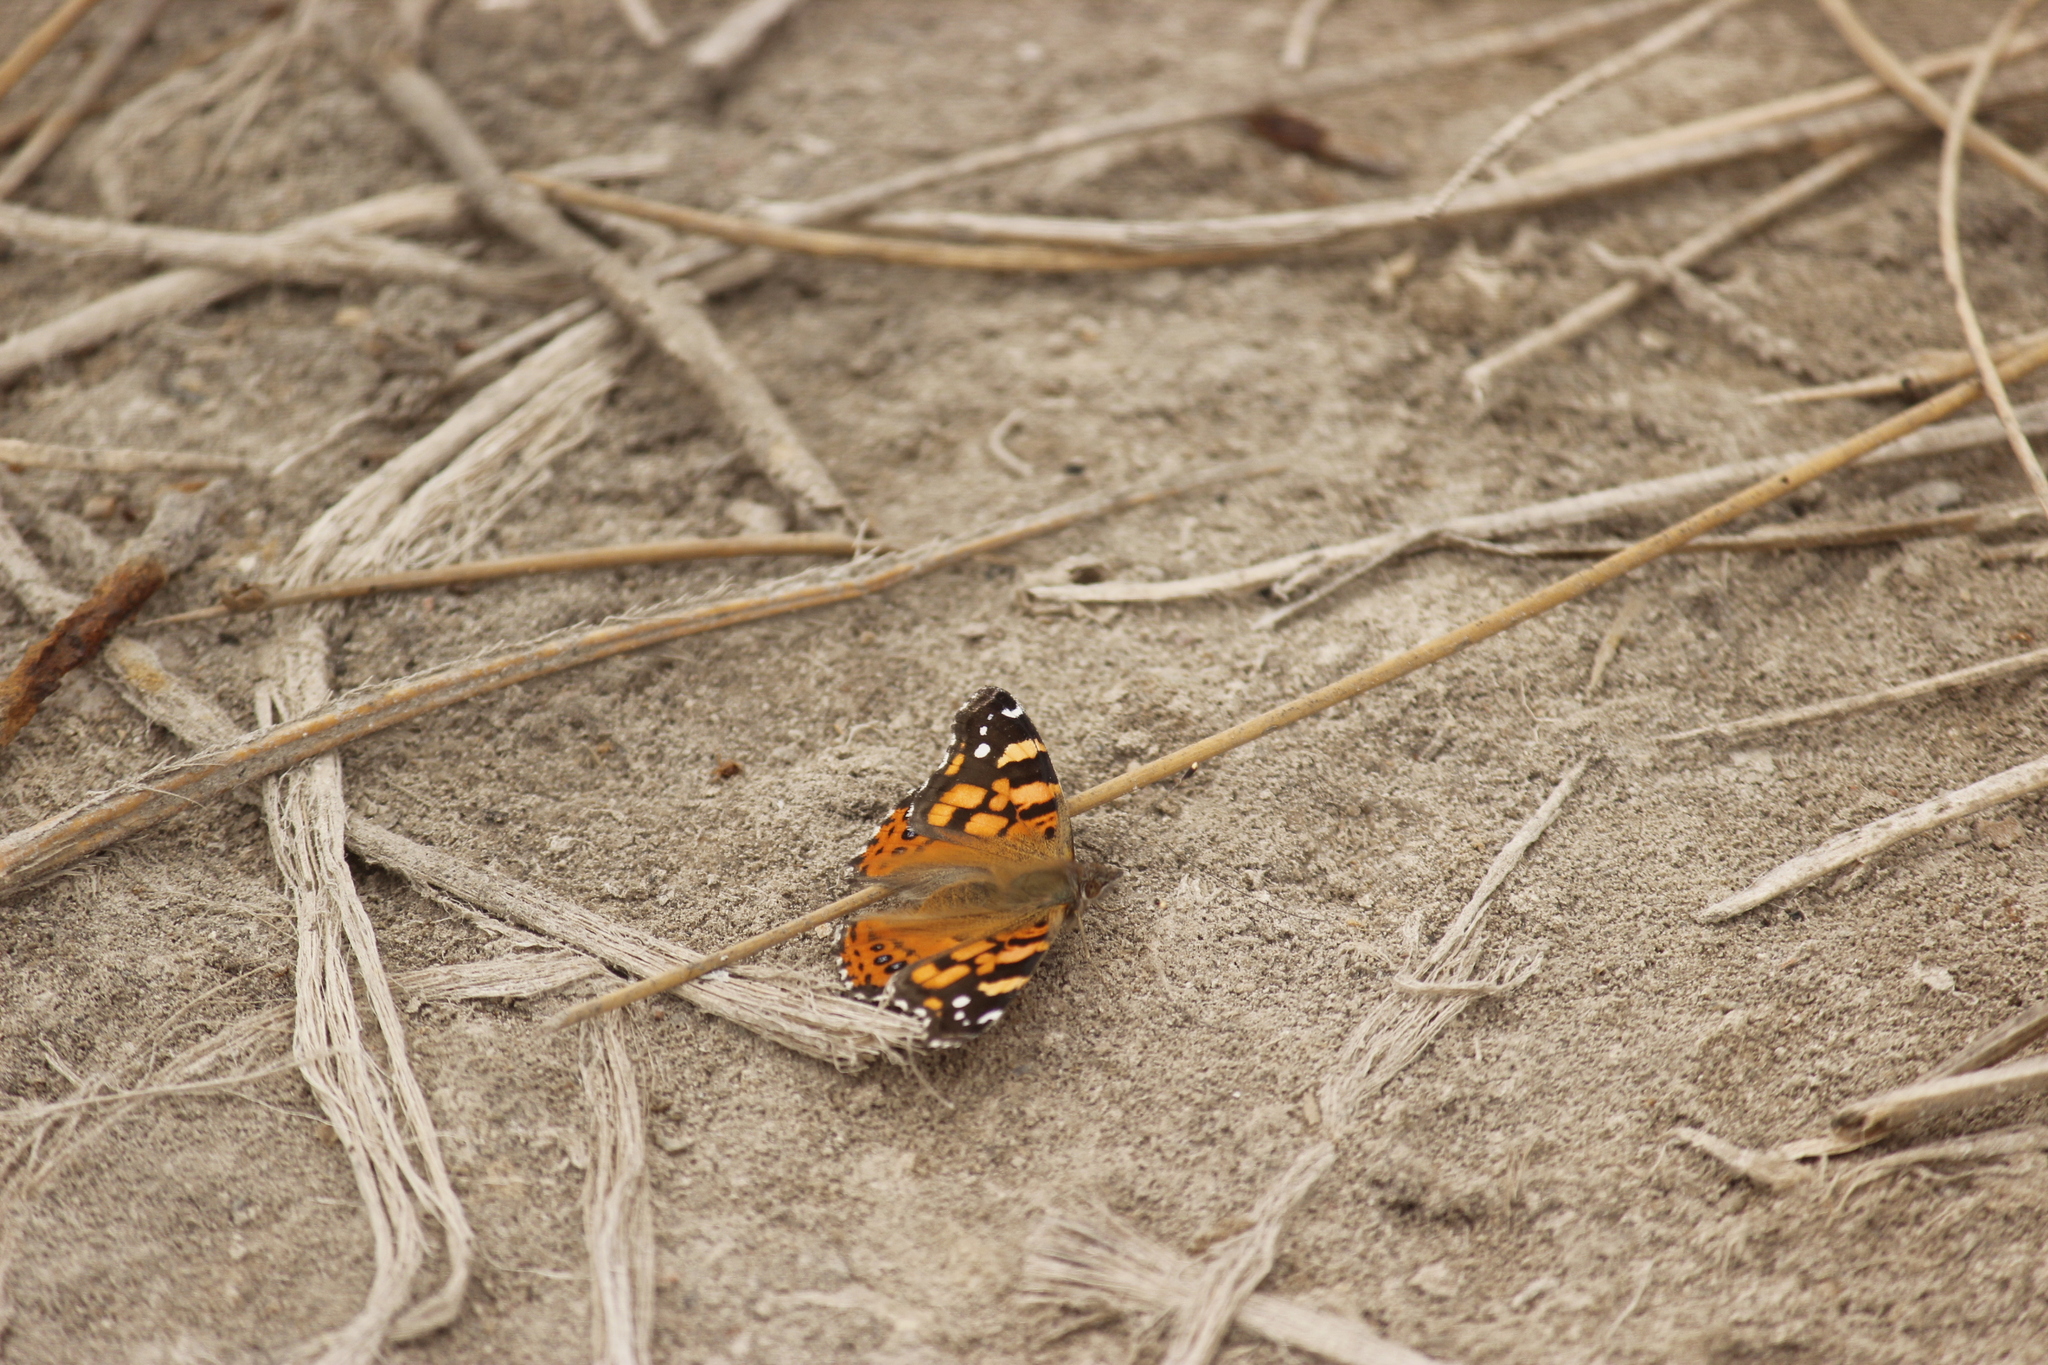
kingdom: Animalia
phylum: Arthropoda
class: Insecta
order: Lepidoptera
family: Nymphalidae
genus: Vanessa
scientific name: Vanessa carye
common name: Subtropical lady
